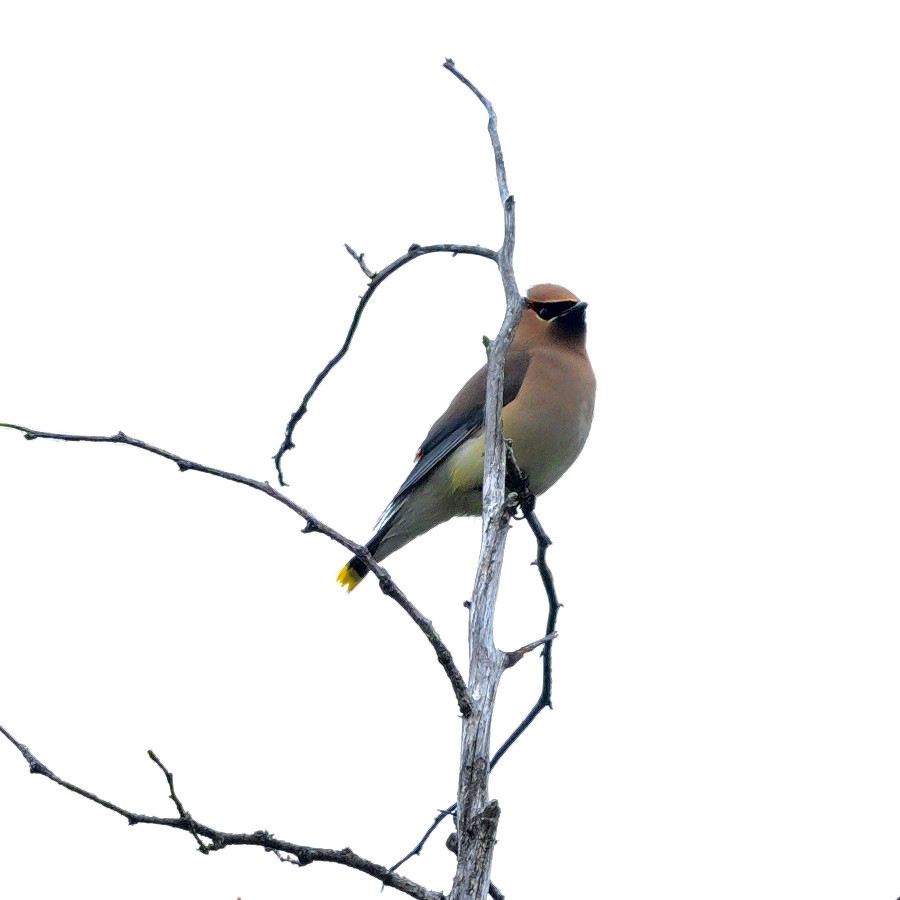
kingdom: Animalia
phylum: Chordata
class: Aves
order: Passeriformes
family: Bombycillidae
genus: Bombycilla
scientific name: Bombycilla cedrorum
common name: Cedar waxwing
